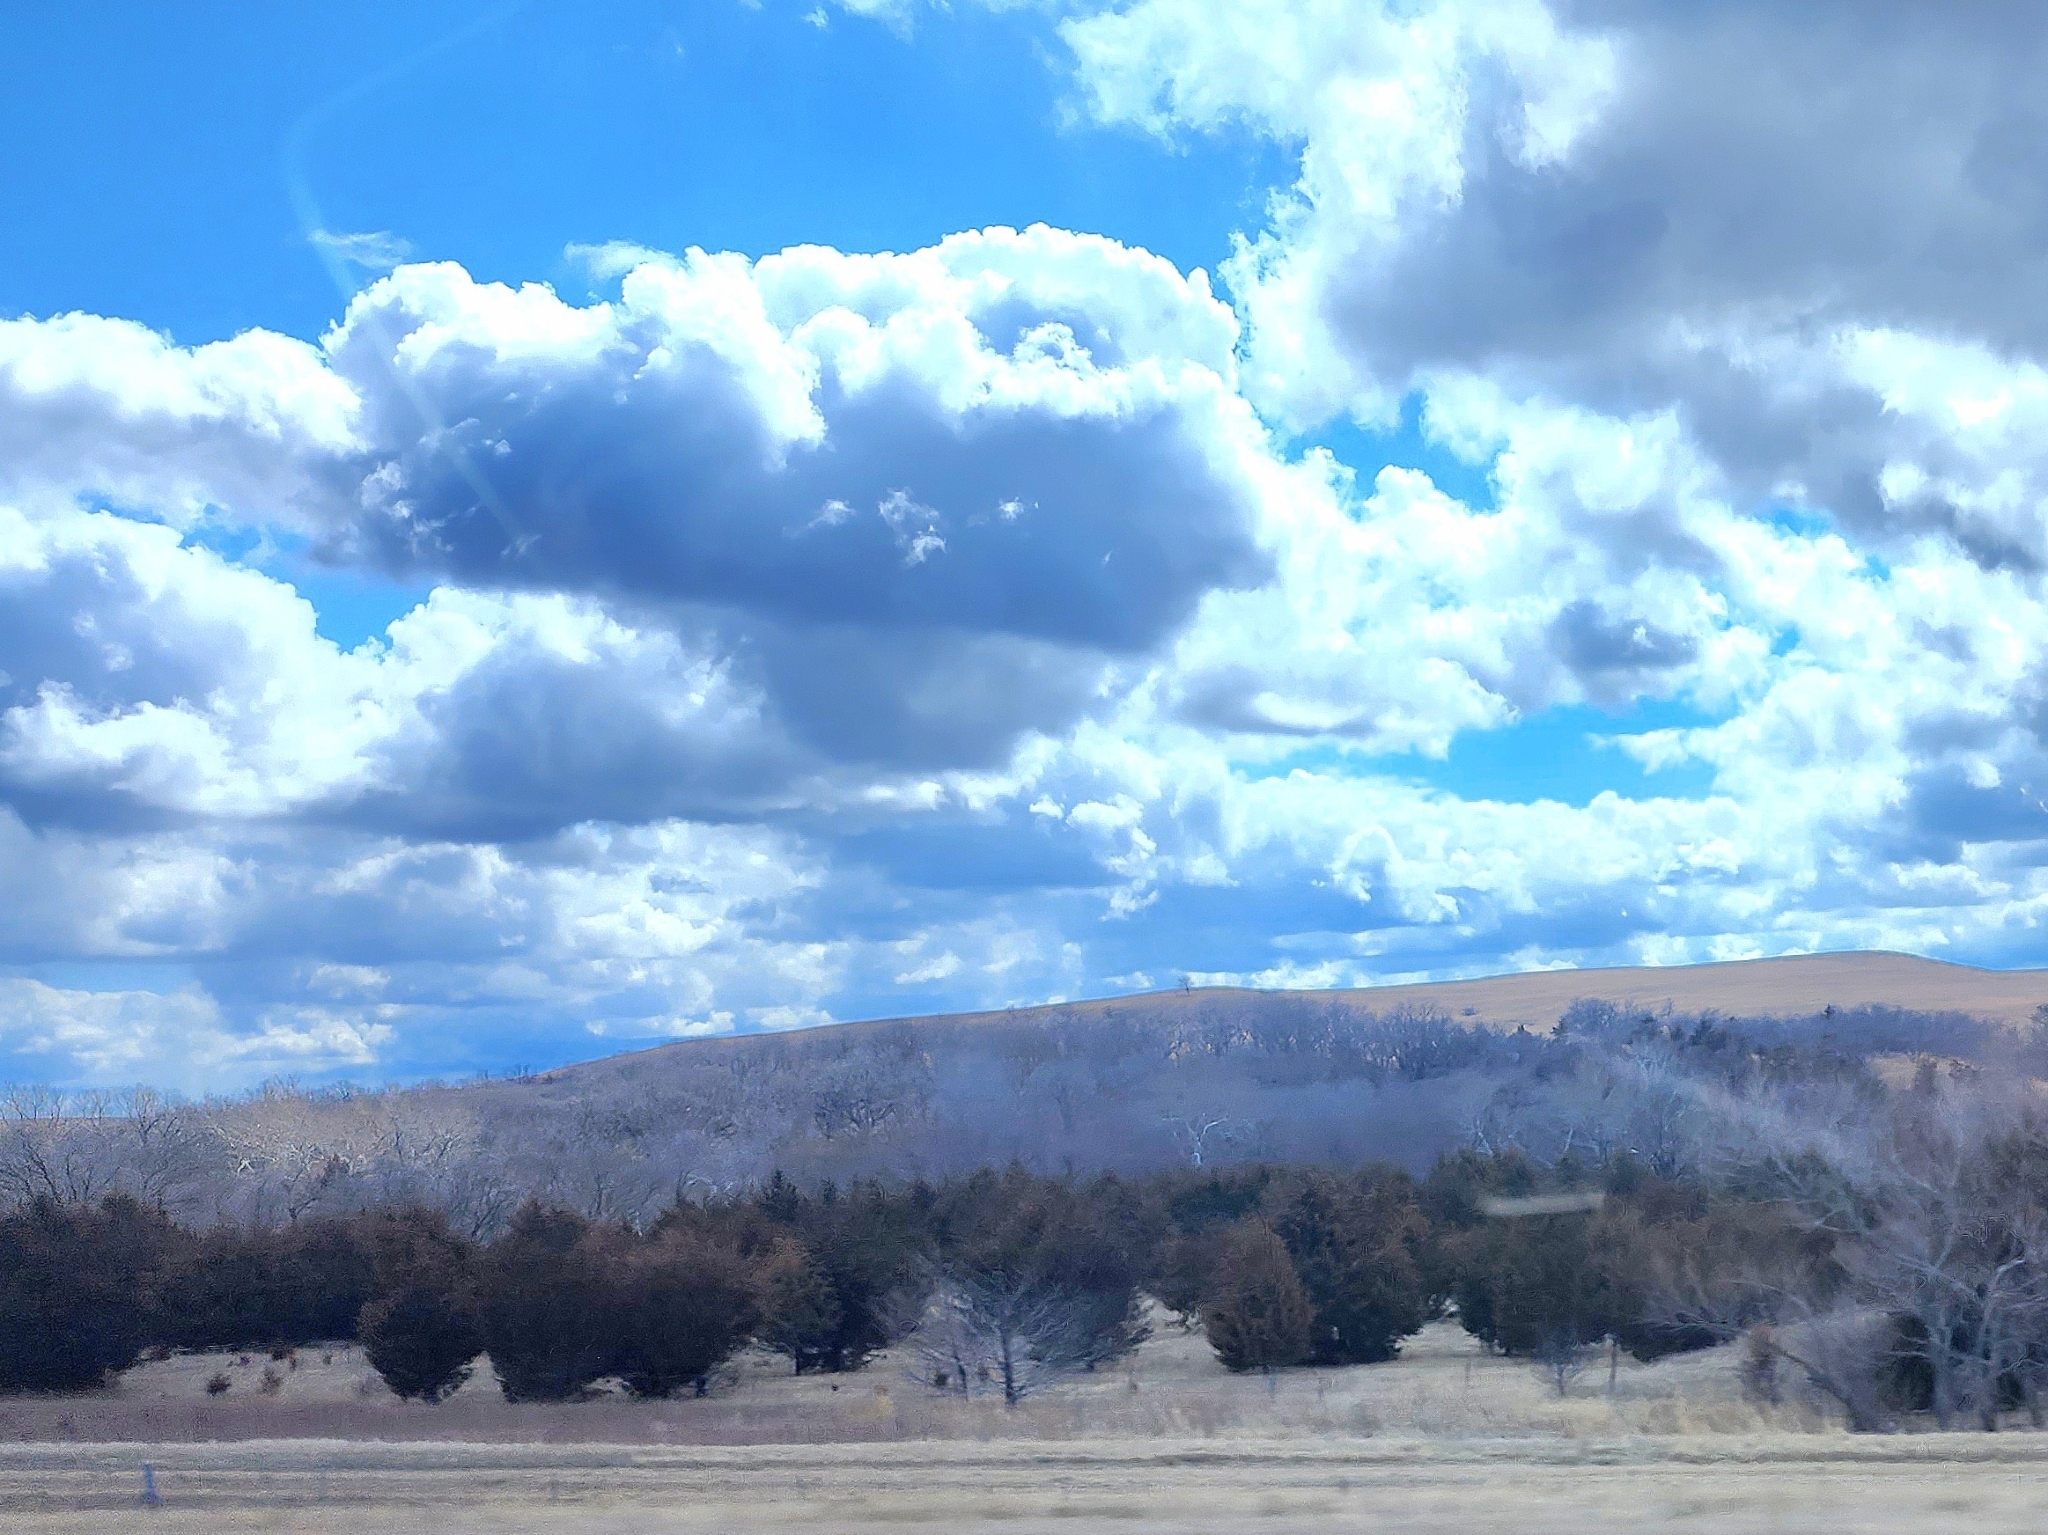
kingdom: Plantae
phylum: Tracheophyta
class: Pinopsida
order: Pinales
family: Cupressaceae
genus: Juniperus
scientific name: Juniperus virginiana
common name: Red juniper
